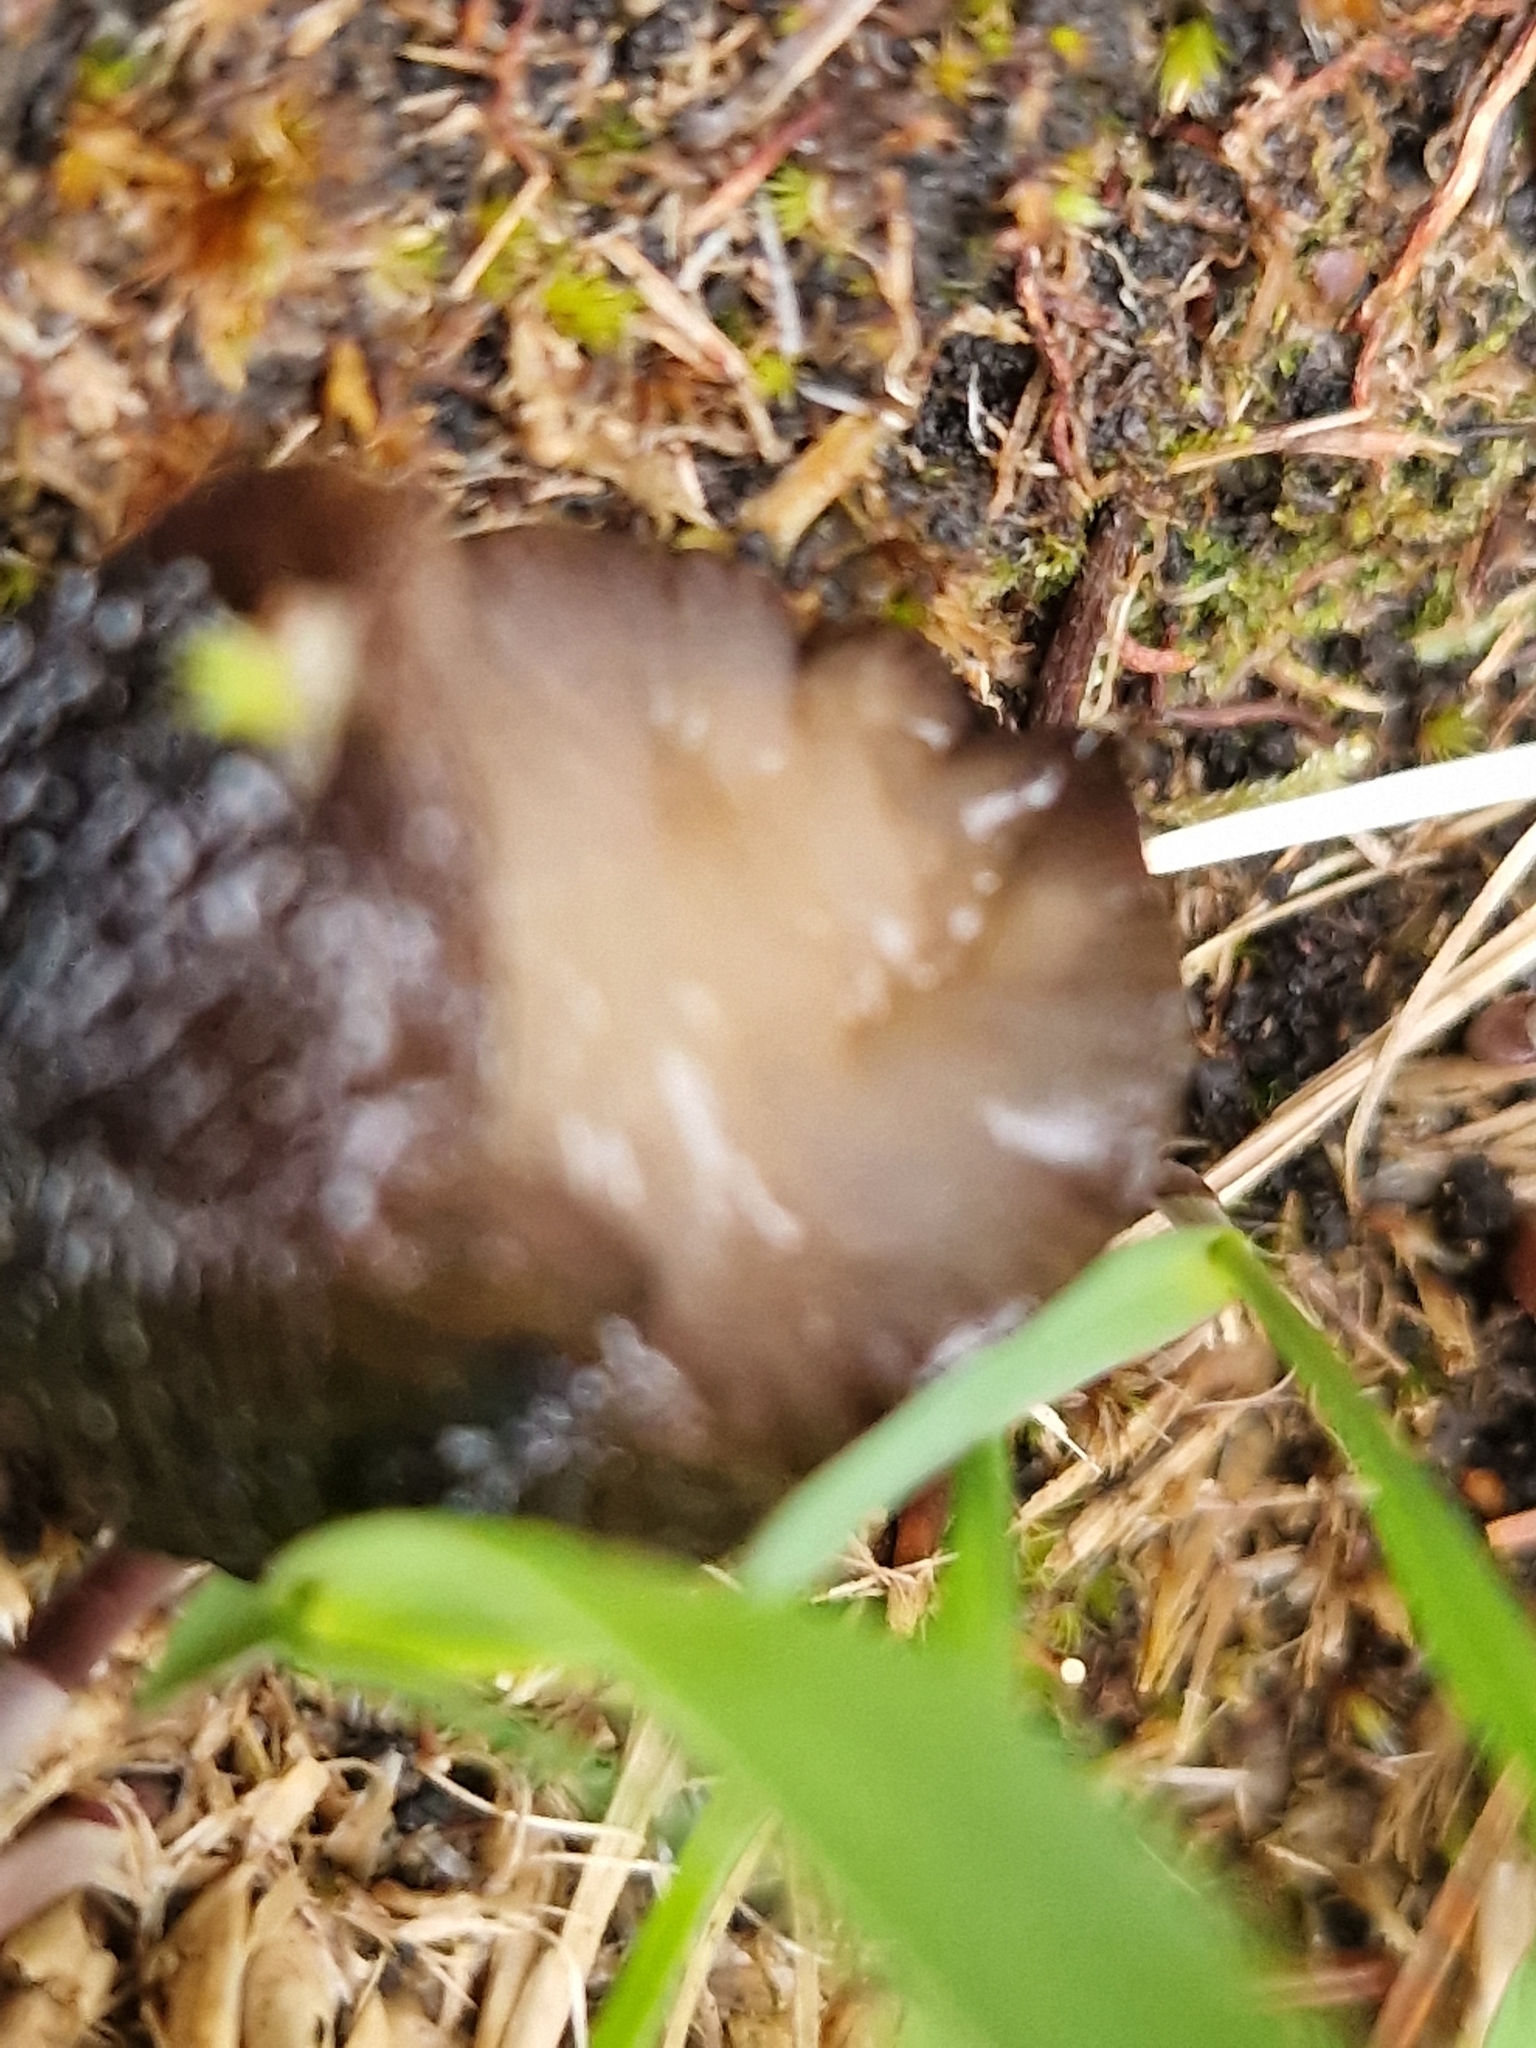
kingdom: Animalia
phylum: Mollusca
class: Gastropoda
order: Stylommatophora
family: Arionidae
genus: Arion
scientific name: Arion ater
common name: Black arion
